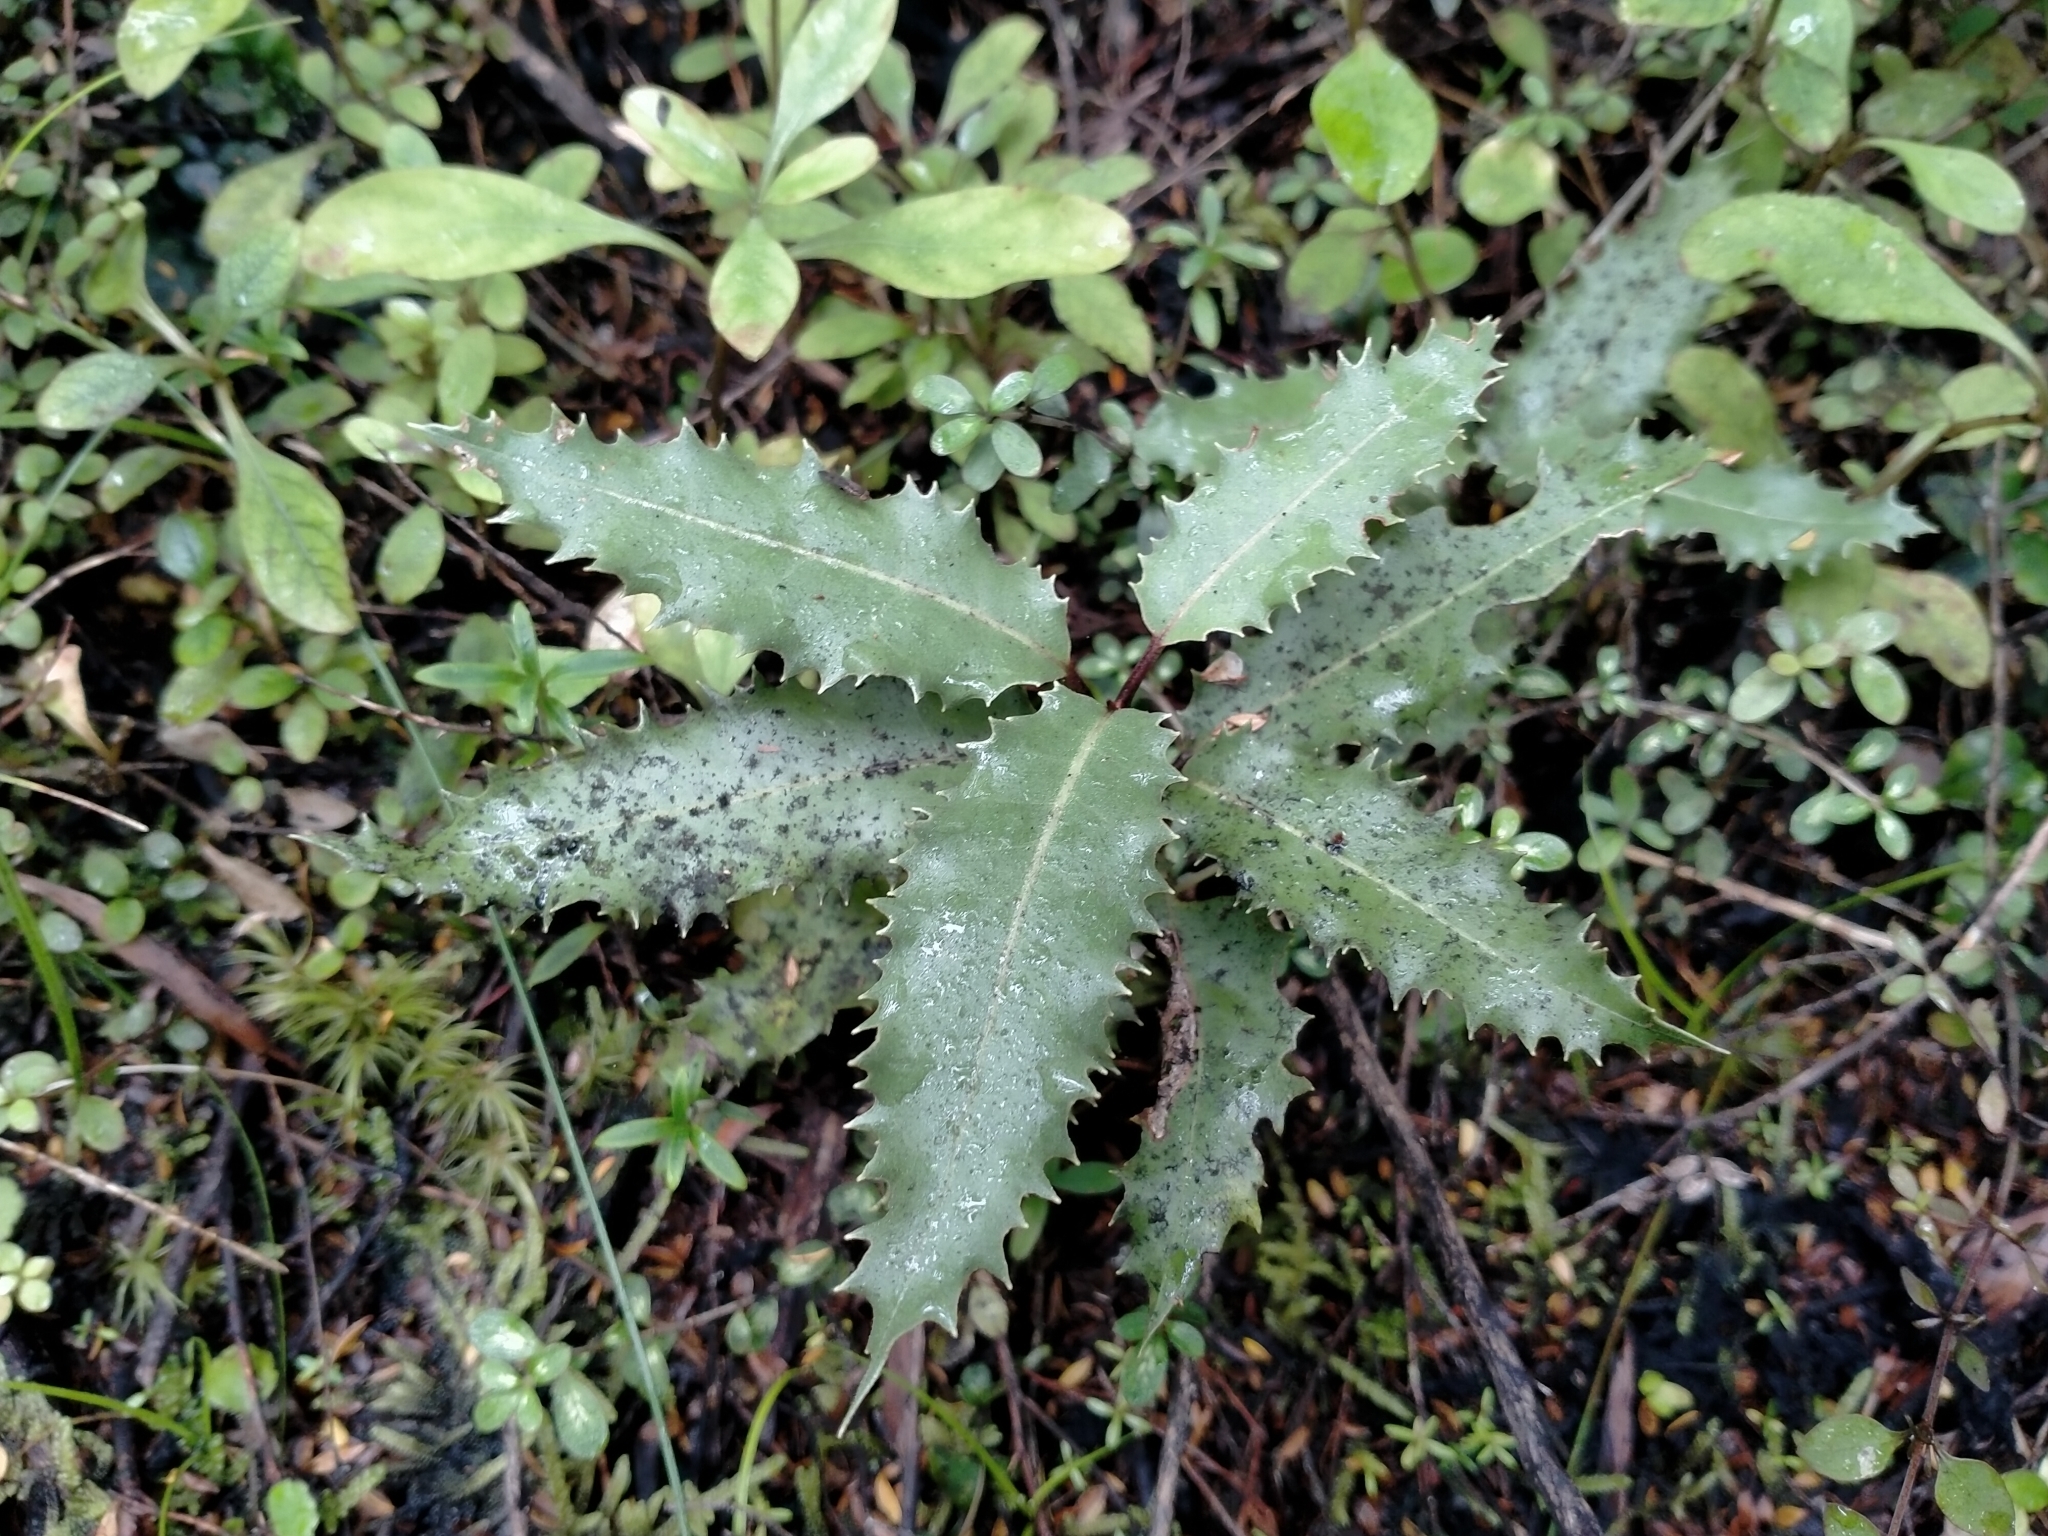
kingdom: Plantae
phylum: Tracheophyta
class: Magnoliopsida
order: Asterales
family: Asteraceae
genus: Olearia
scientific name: Olearia ilicifolia
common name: Maori-holly
